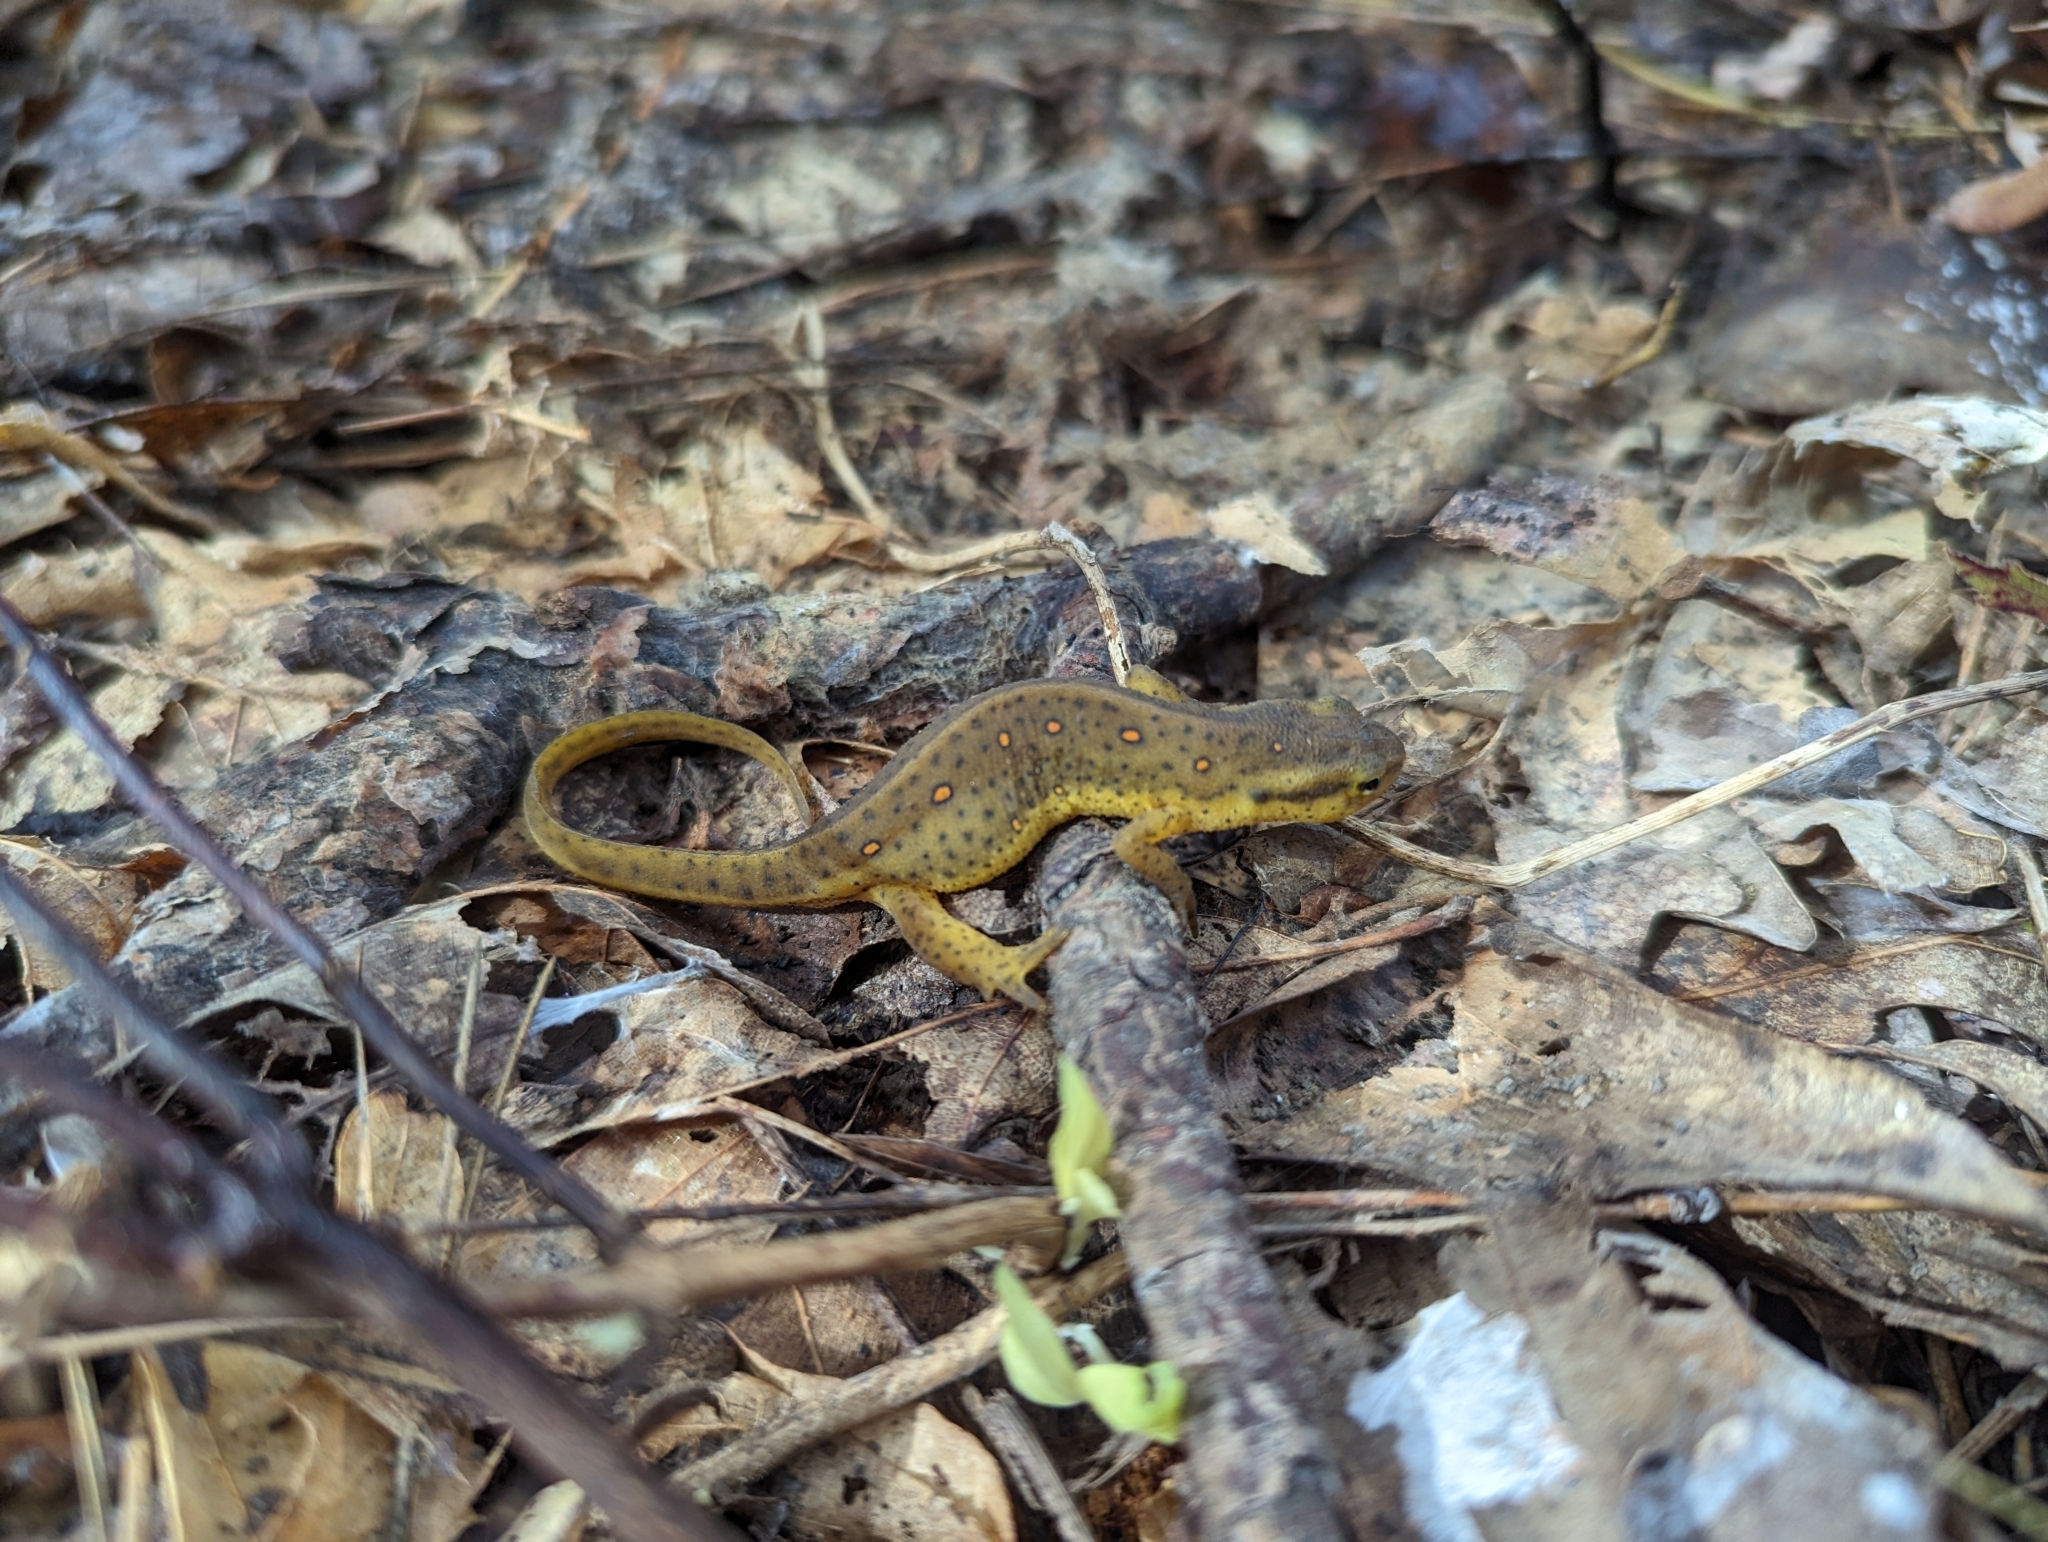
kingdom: Animalia
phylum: Chordata
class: Amphibia
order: Caudata
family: Salamandridae
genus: Notophthalmus
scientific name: Notophthalmus viridescens
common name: Eastern newt
